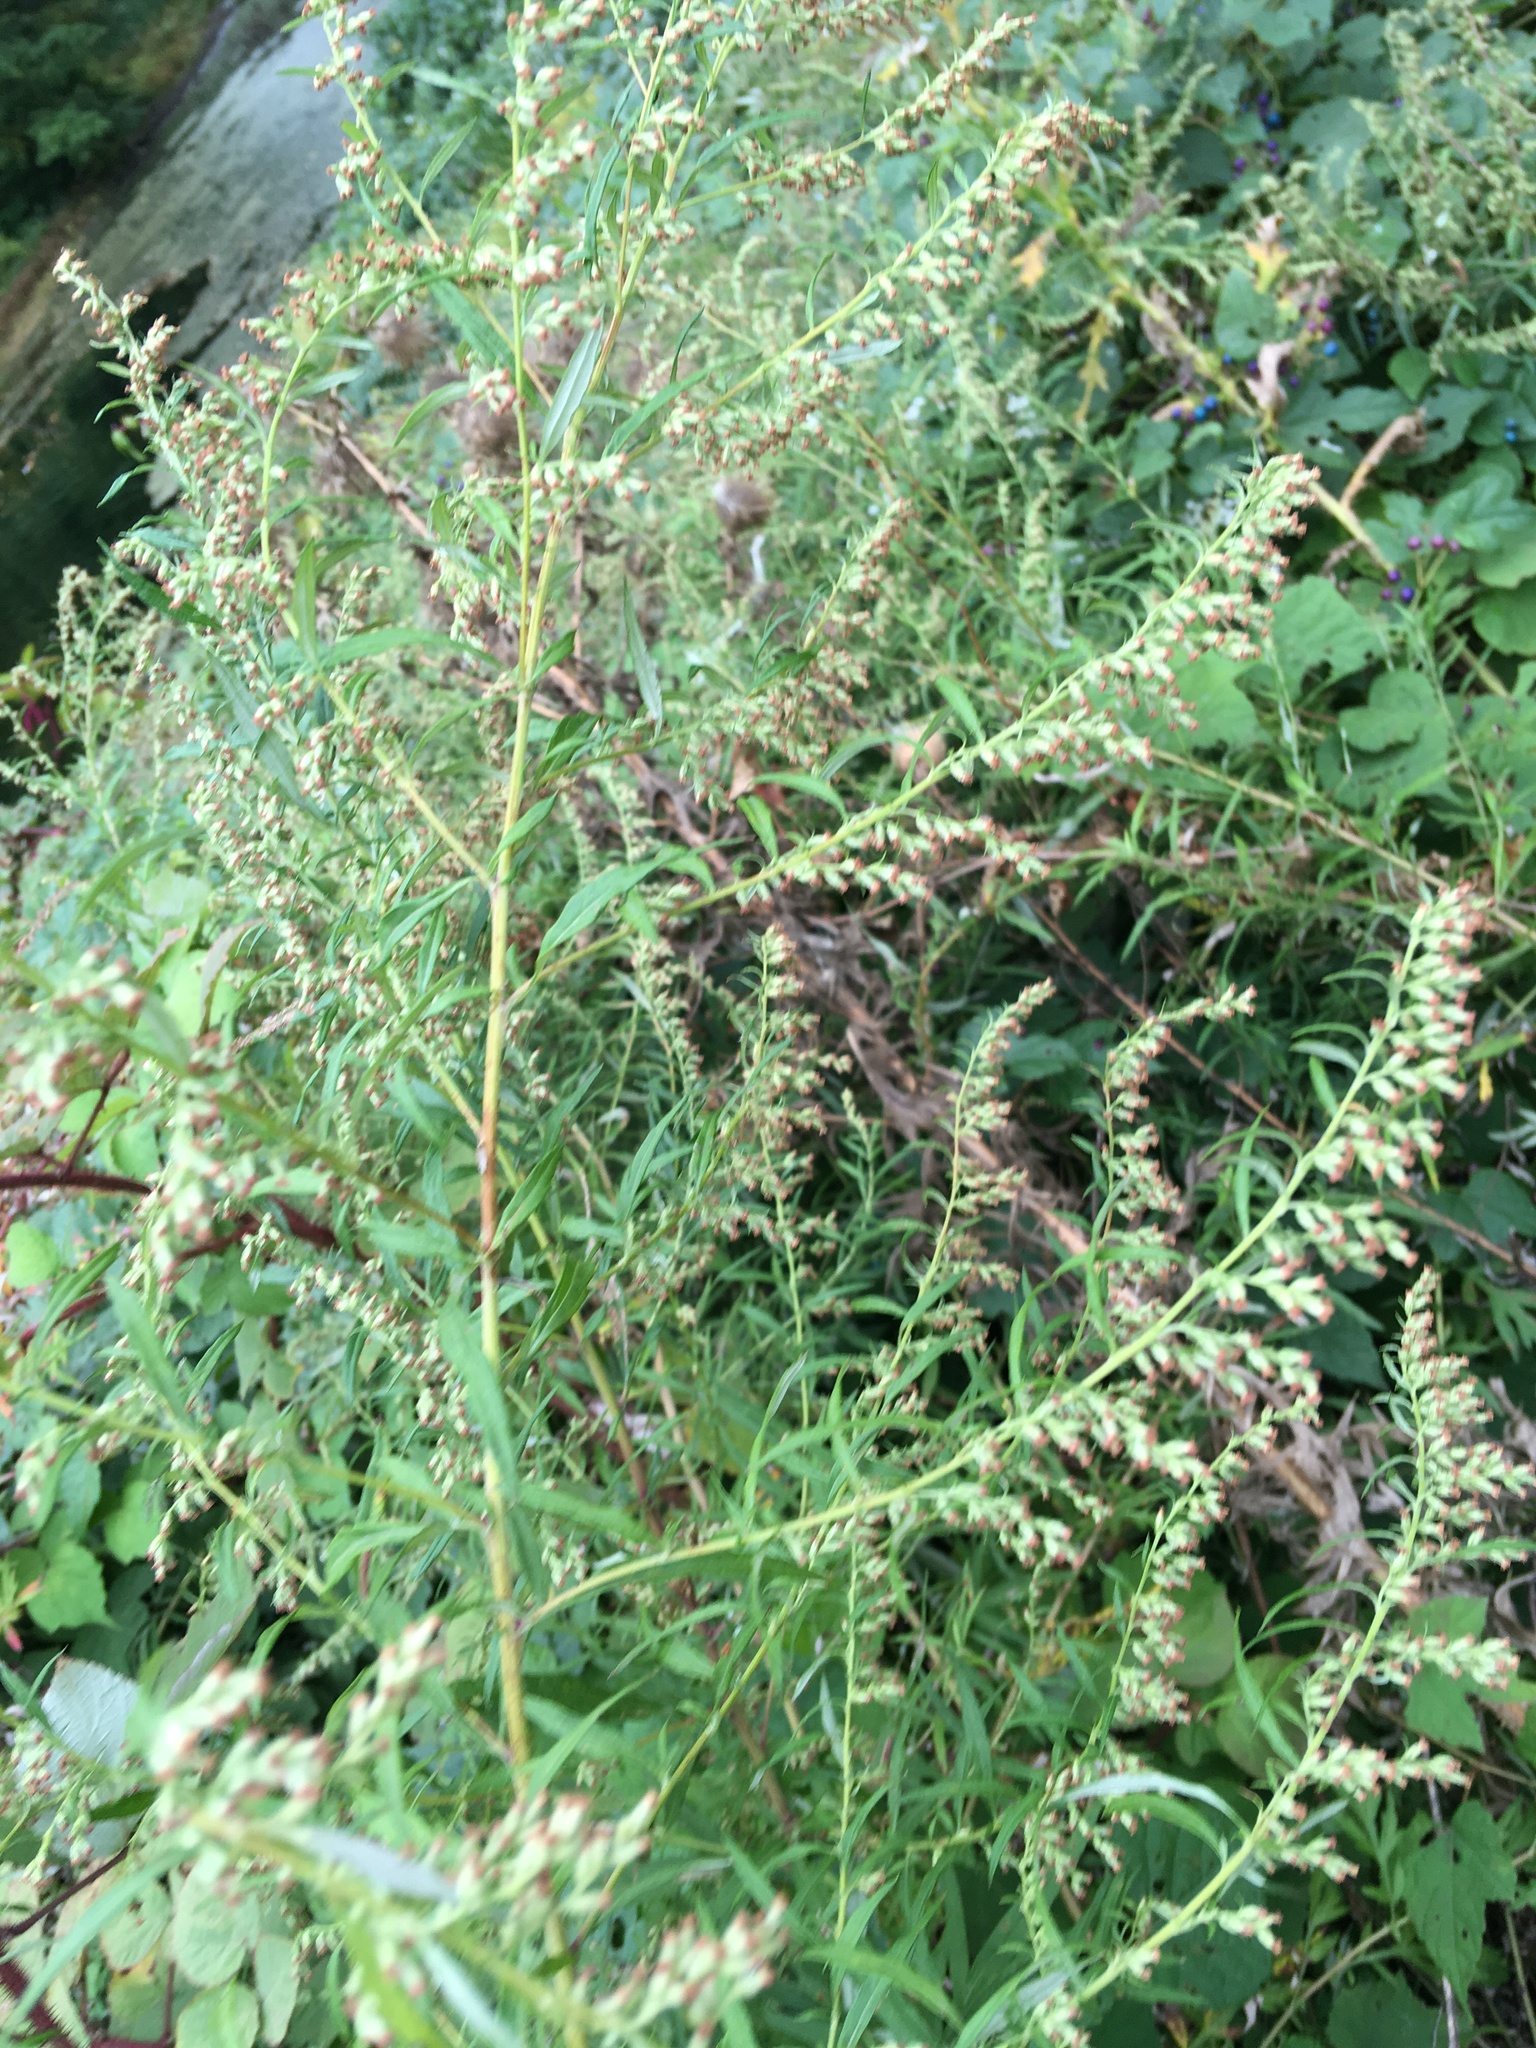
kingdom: Plantae
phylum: Tracheophyta
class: Magnoliopsida
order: Asterales
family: Asteraceae
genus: Artemisia
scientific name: Artemisia vulgaris
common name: Mugwort
